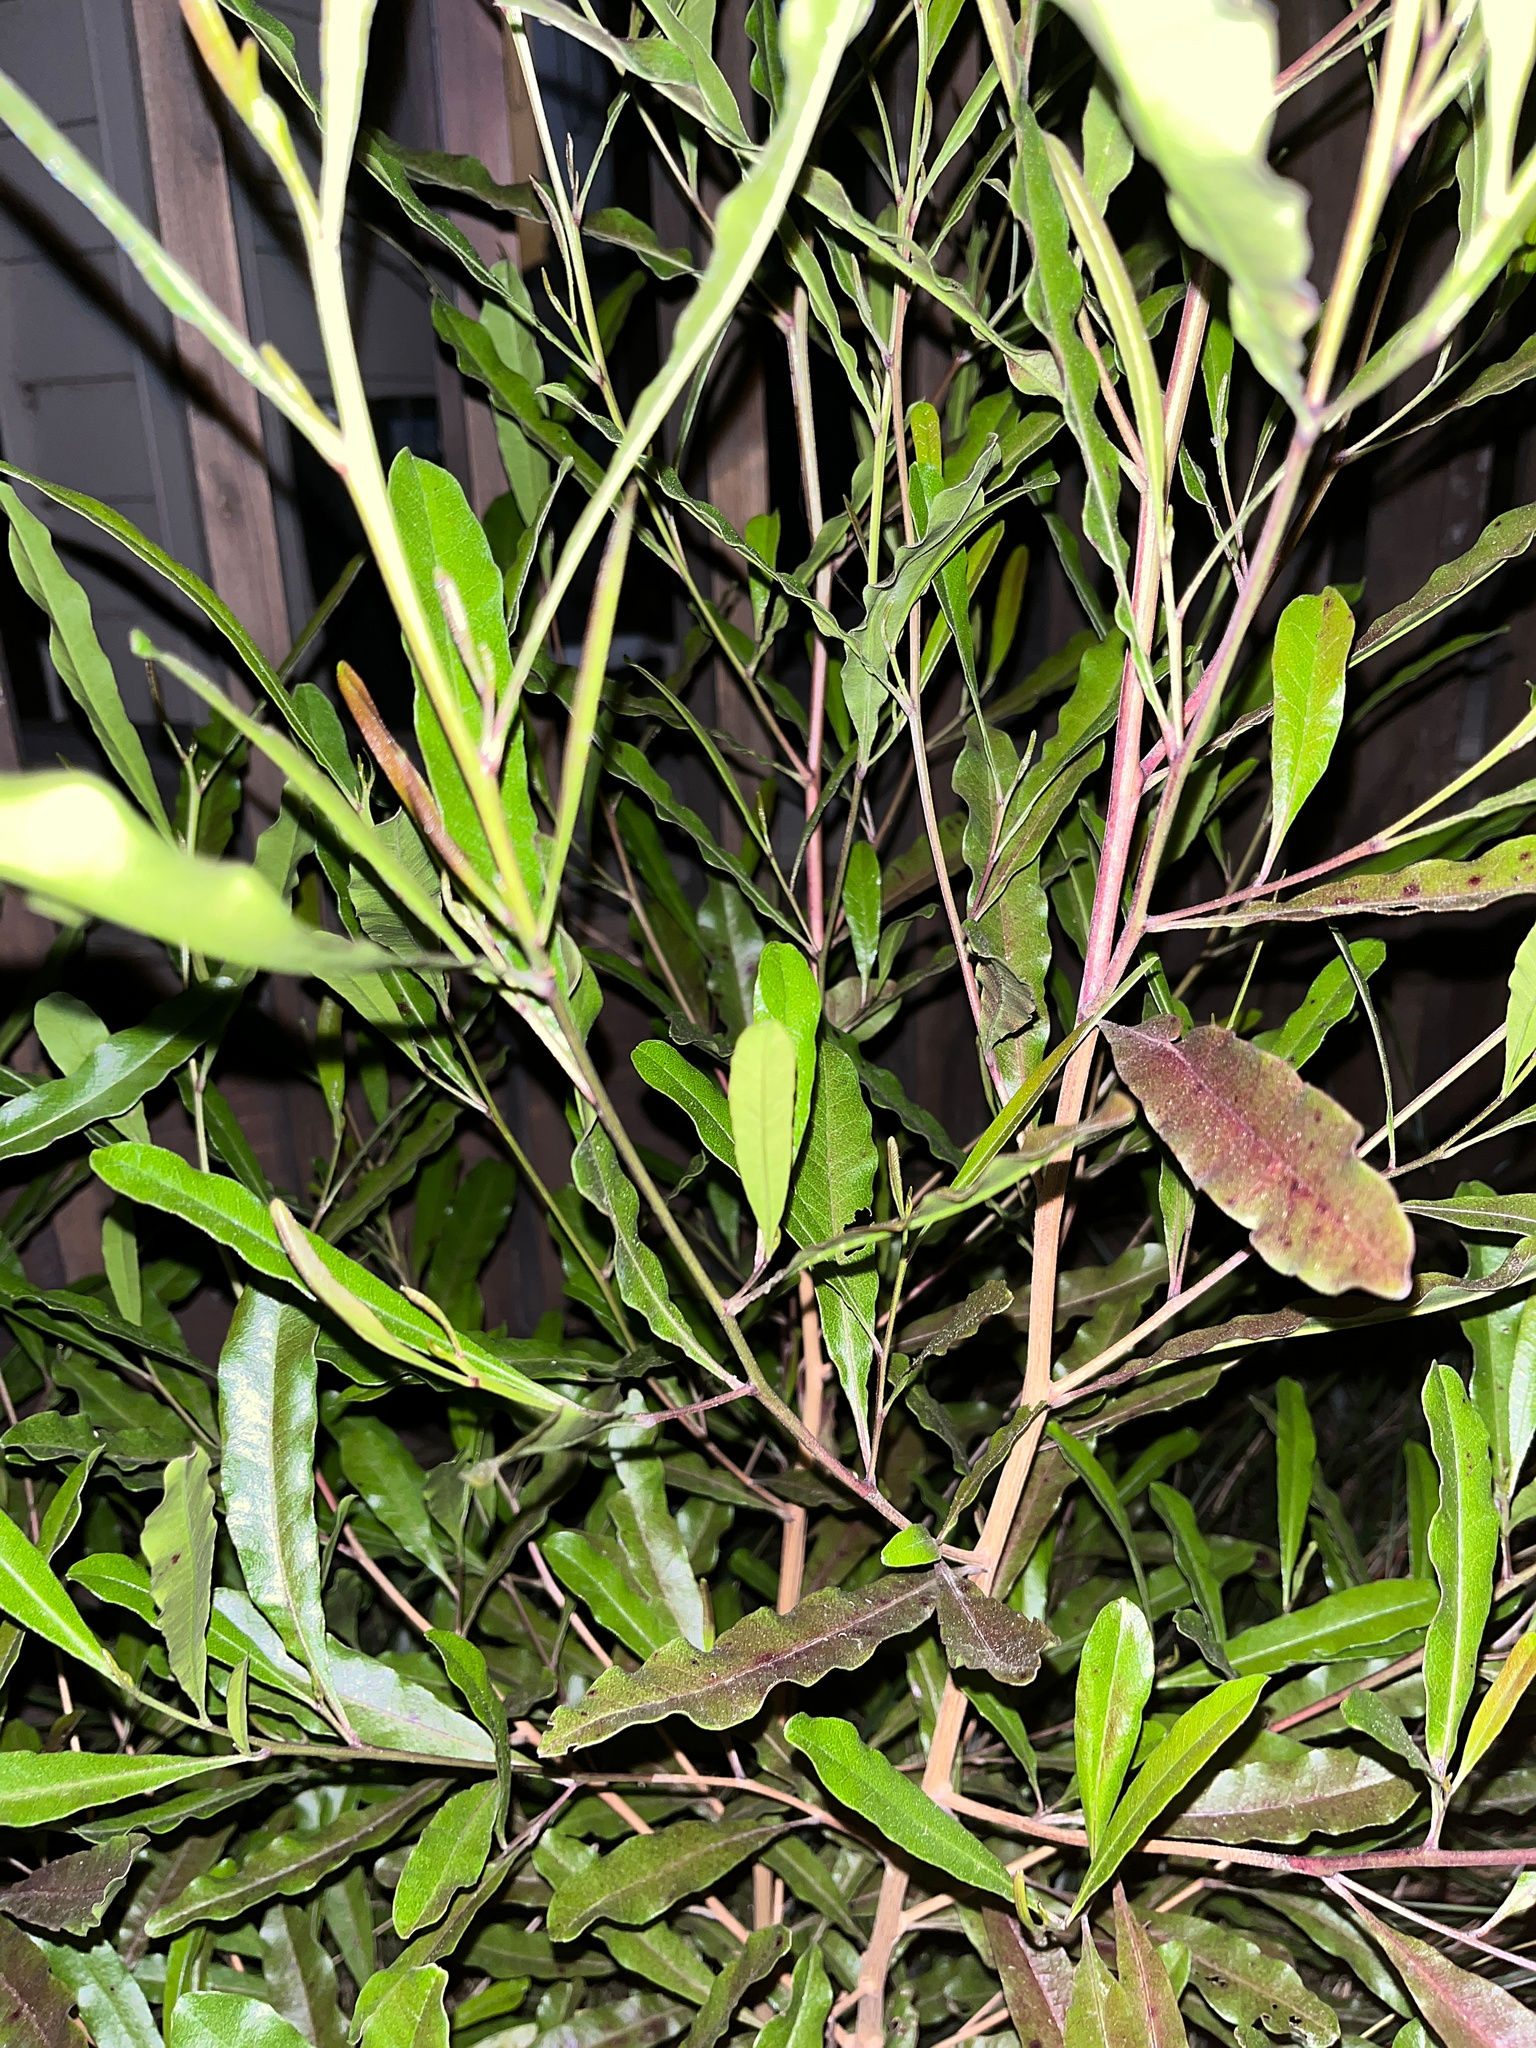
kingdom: Plantae
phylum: Tracheophyta
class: Magnoliopsida
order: Sapindales
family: Sapindaceae
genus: Dodonaea
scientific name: Dodonaea viscosa
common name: Hopbush
